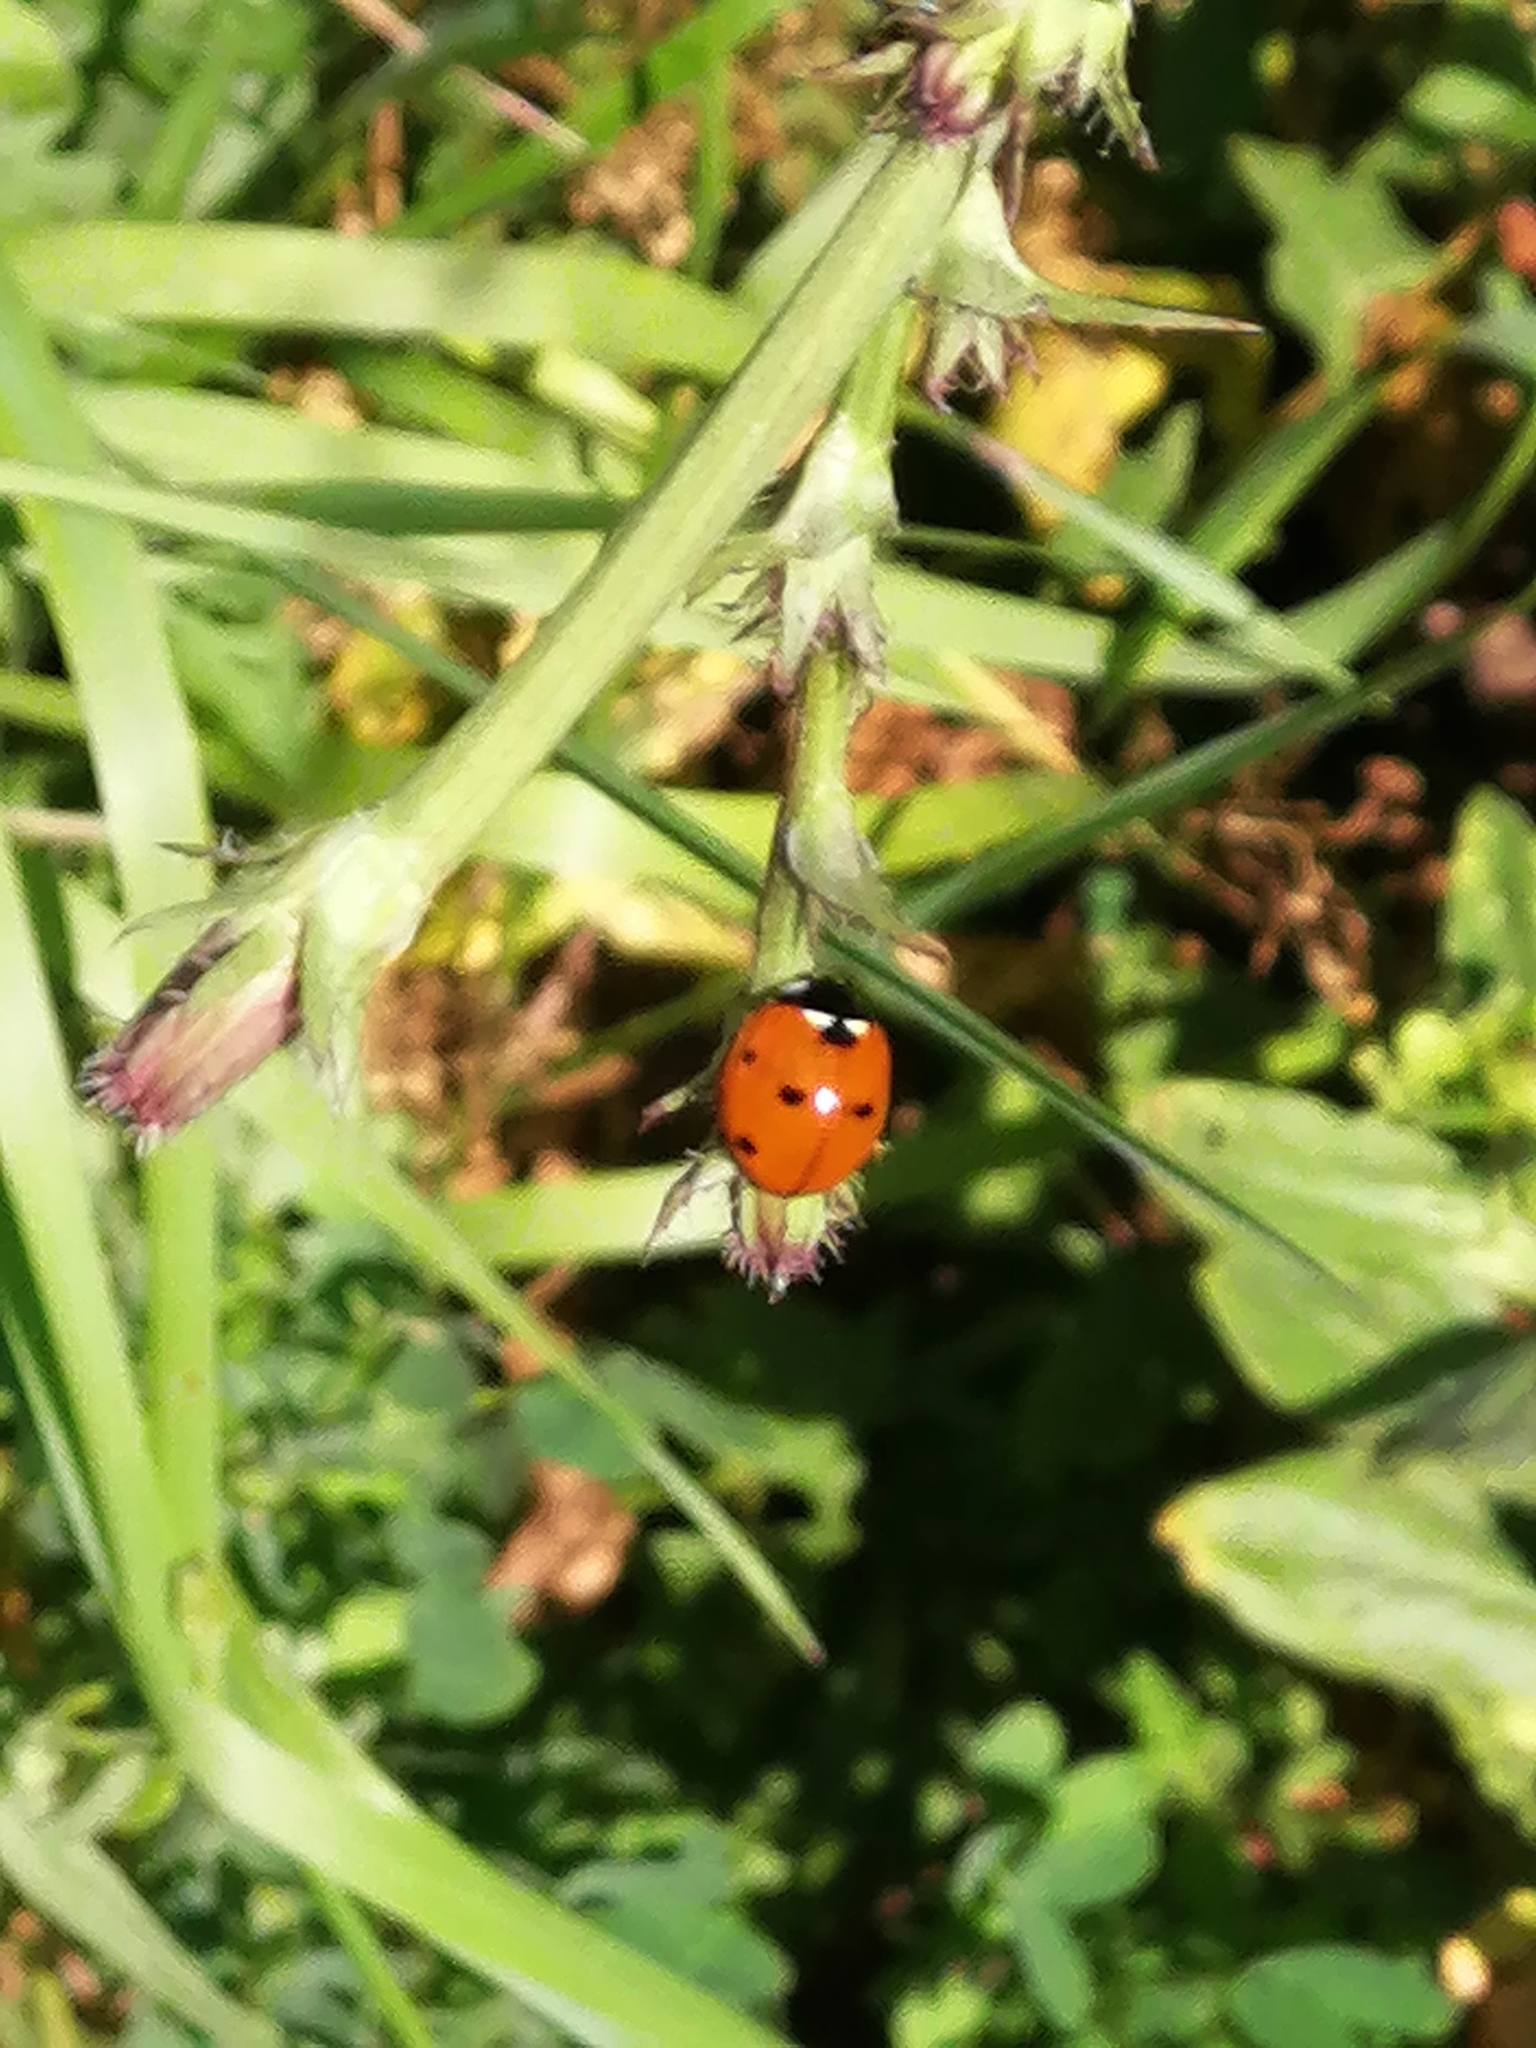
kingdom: Animalia
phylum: Arthropoda
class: Insecta
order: Coleoptera
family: Coccinellidae
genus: Coccinella
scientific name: Coccinella septempunctata
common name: Sevenspotted lady beetle
